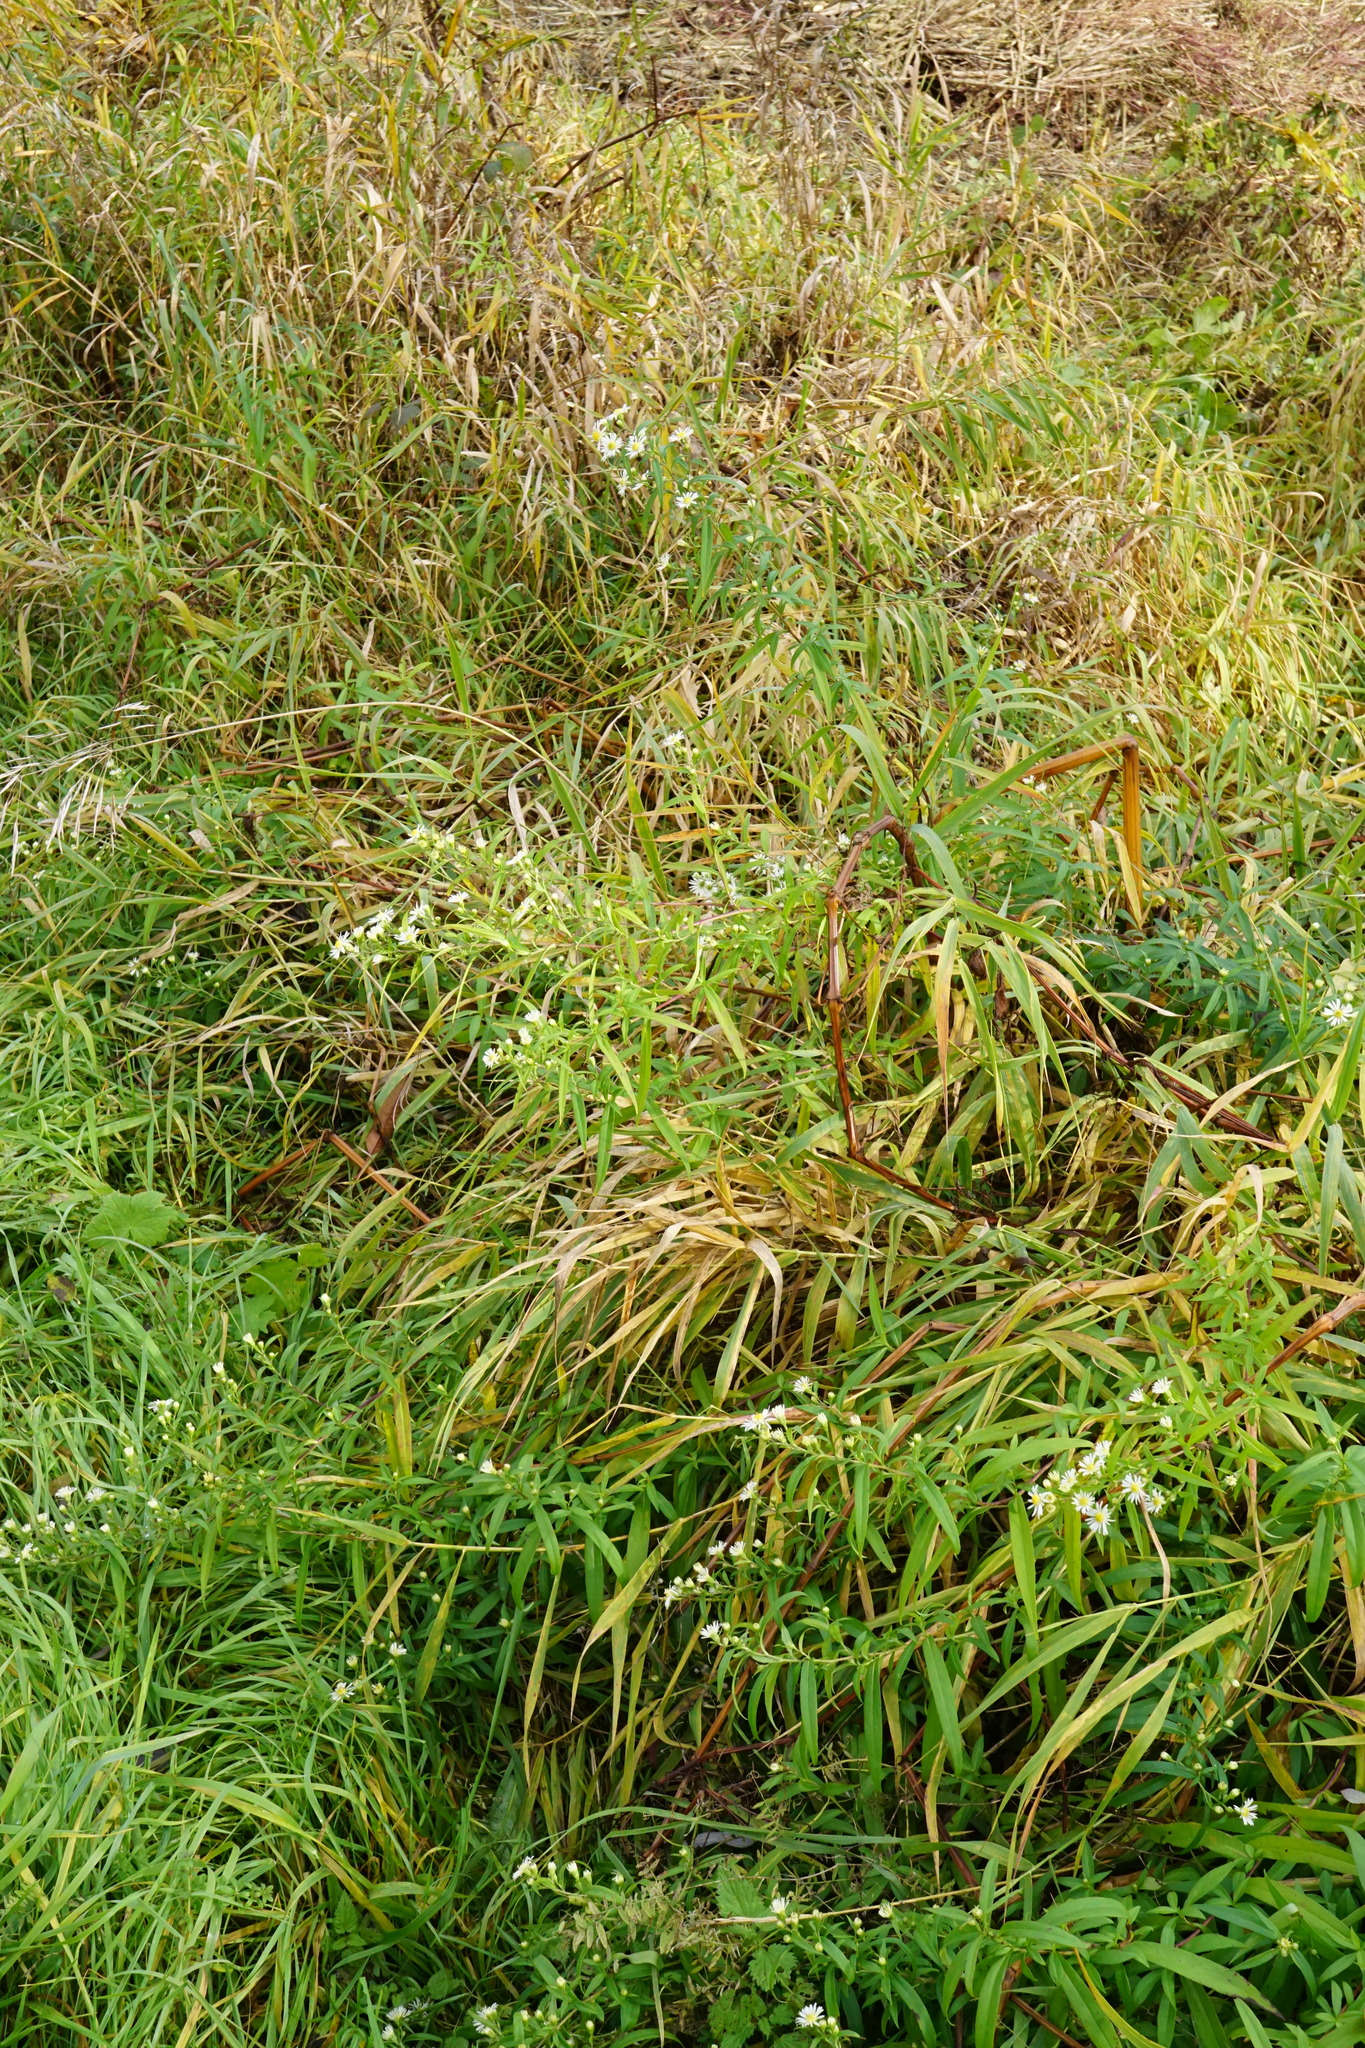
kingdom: Plantae
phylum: Tracheophyta
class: Magnoliopsida
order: Asterales
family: Asteraceae
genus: Symphyotrichum
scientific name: Symphyotrichum lanceolatum
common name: Panicled aster
